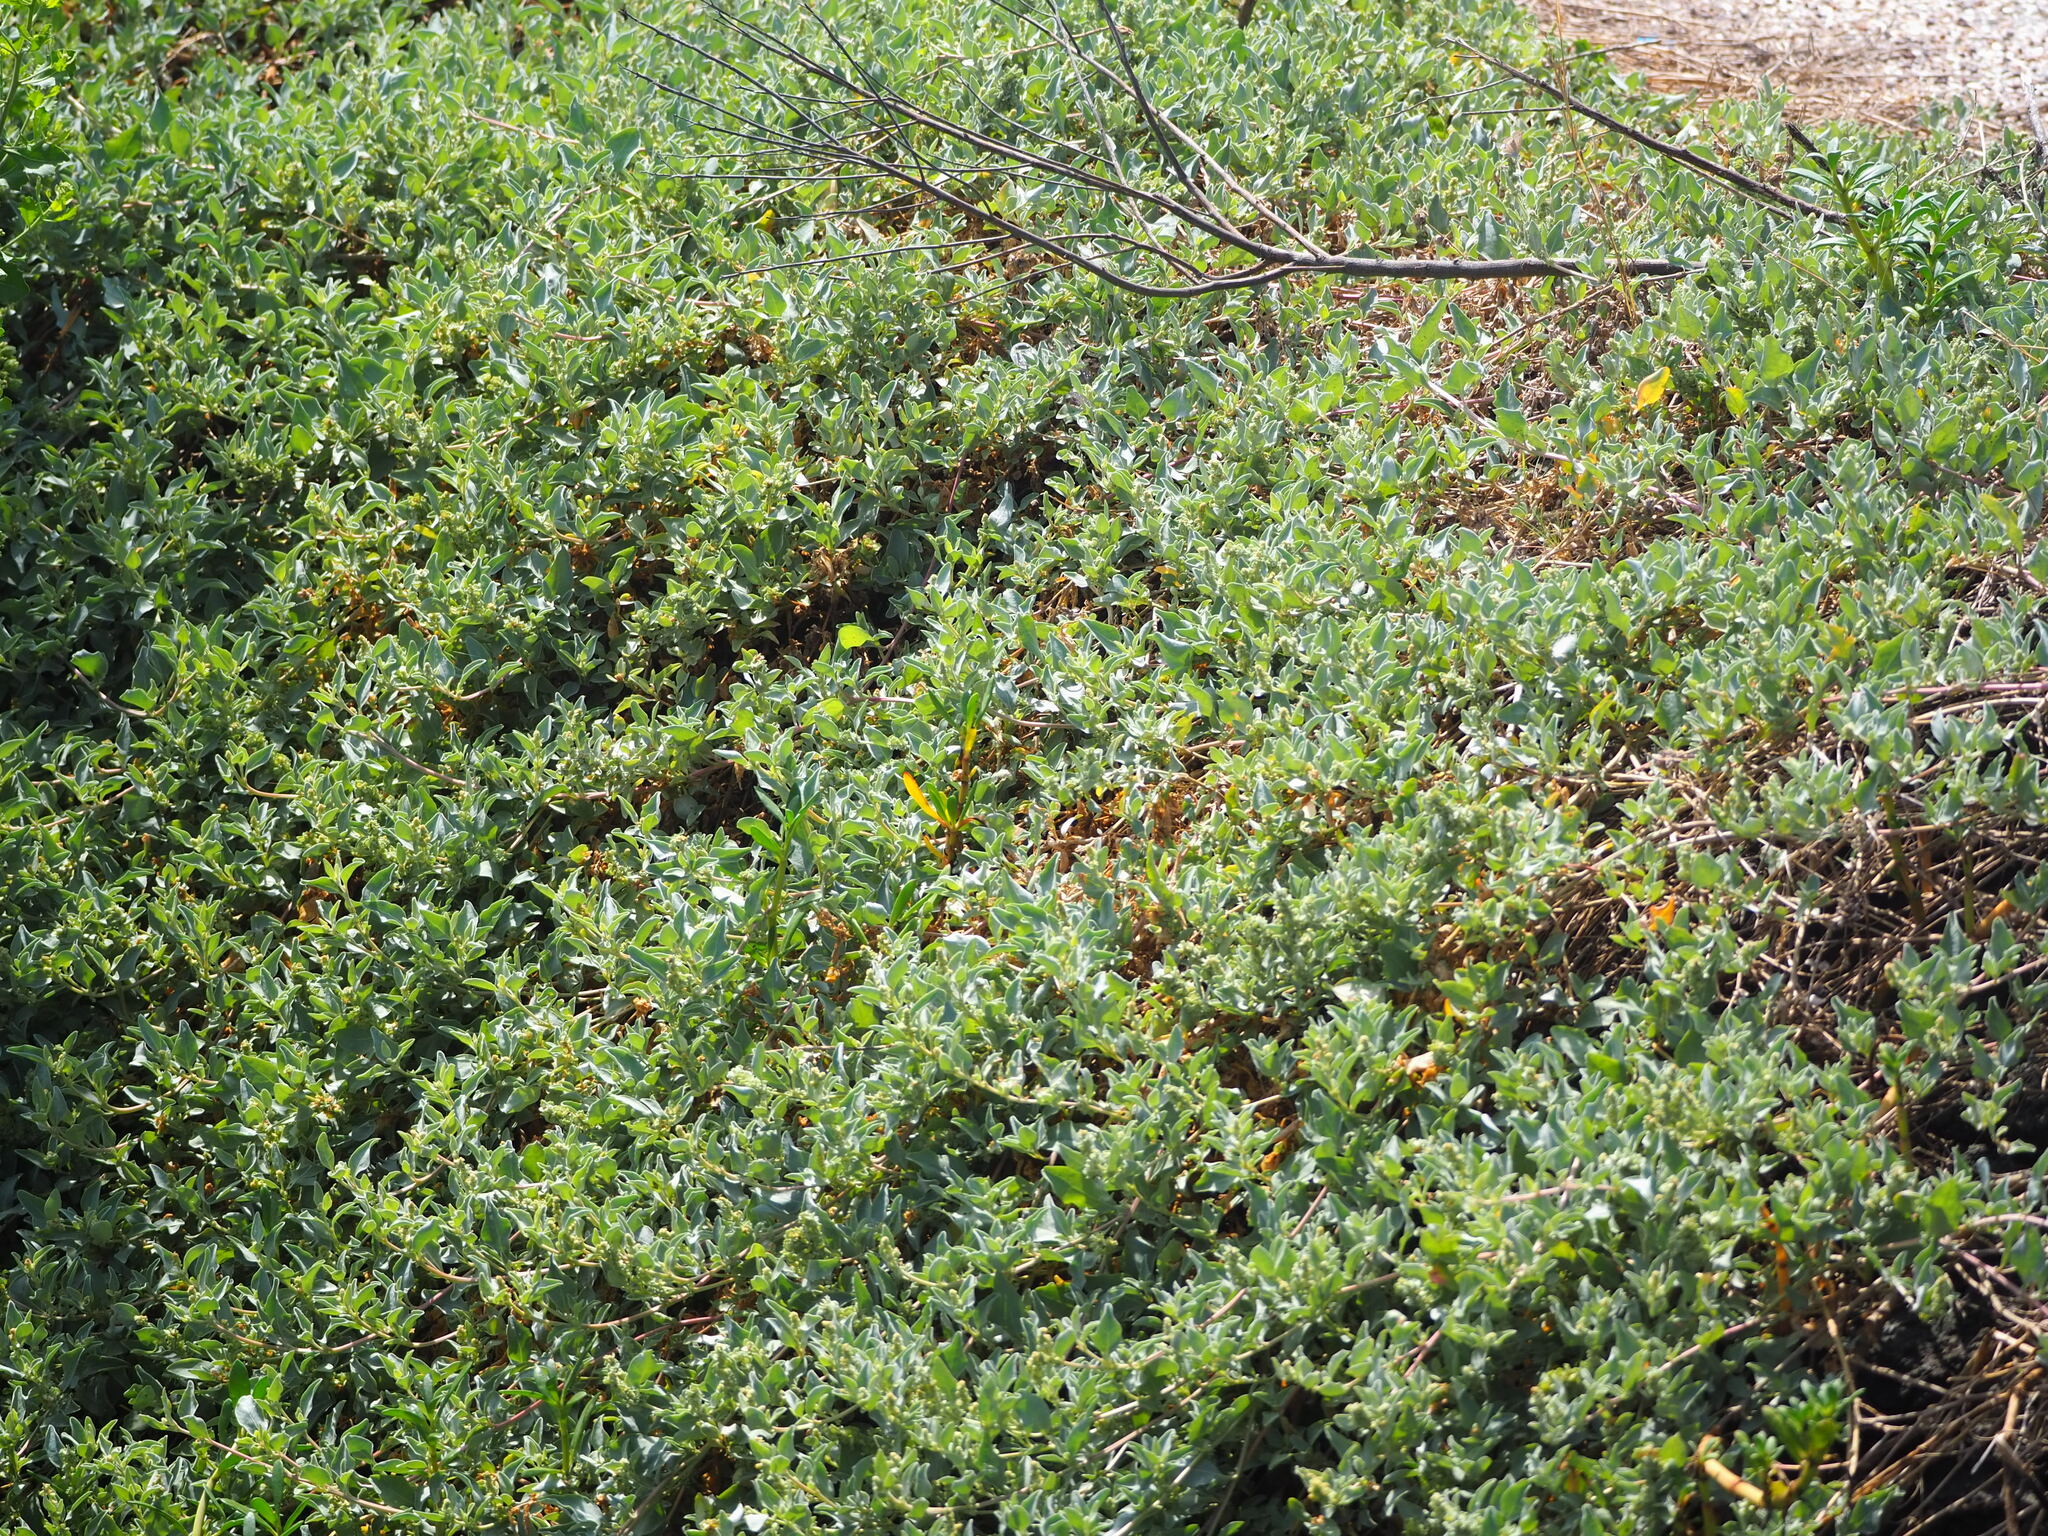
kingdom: Plantae
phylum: Tracheophyta
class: Magnoliopsida
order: Caryophyllales
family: Amaranthaceae
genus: Atriplex
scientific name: Atriplex maximowicziana
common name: Maximowicz's saltbush
